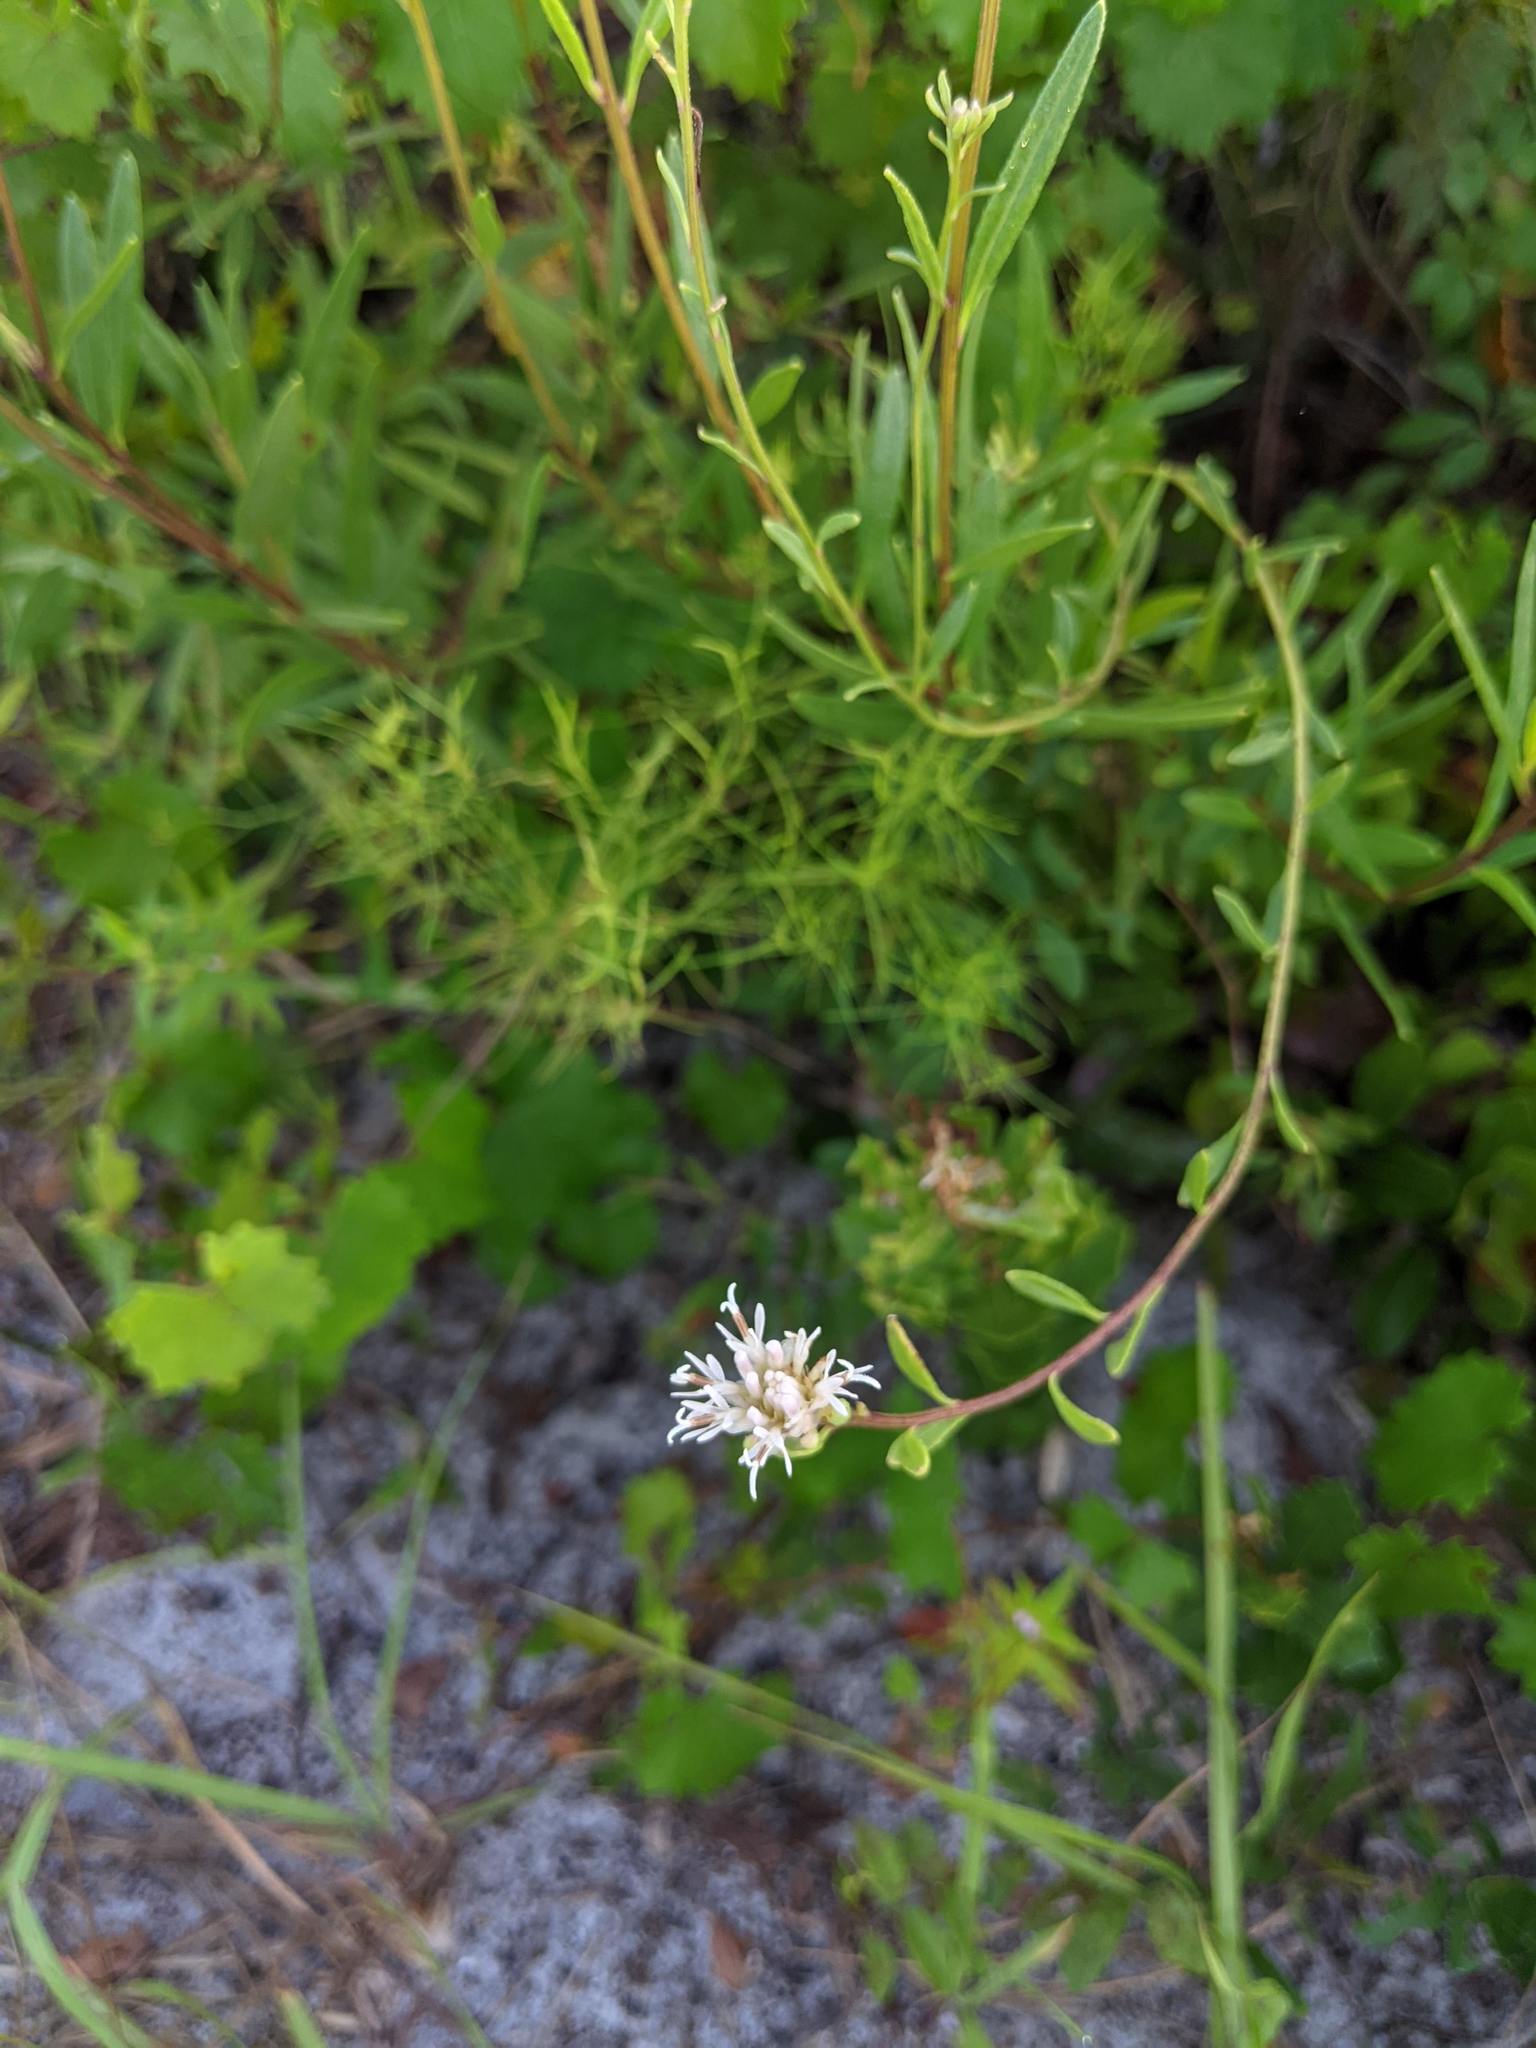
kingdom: Plantae
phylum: Tracheophyta
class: Magnoliopsida
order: Asterales
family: Asteraceae
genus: Palafoxia
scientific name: Palafoxia integrifolia
